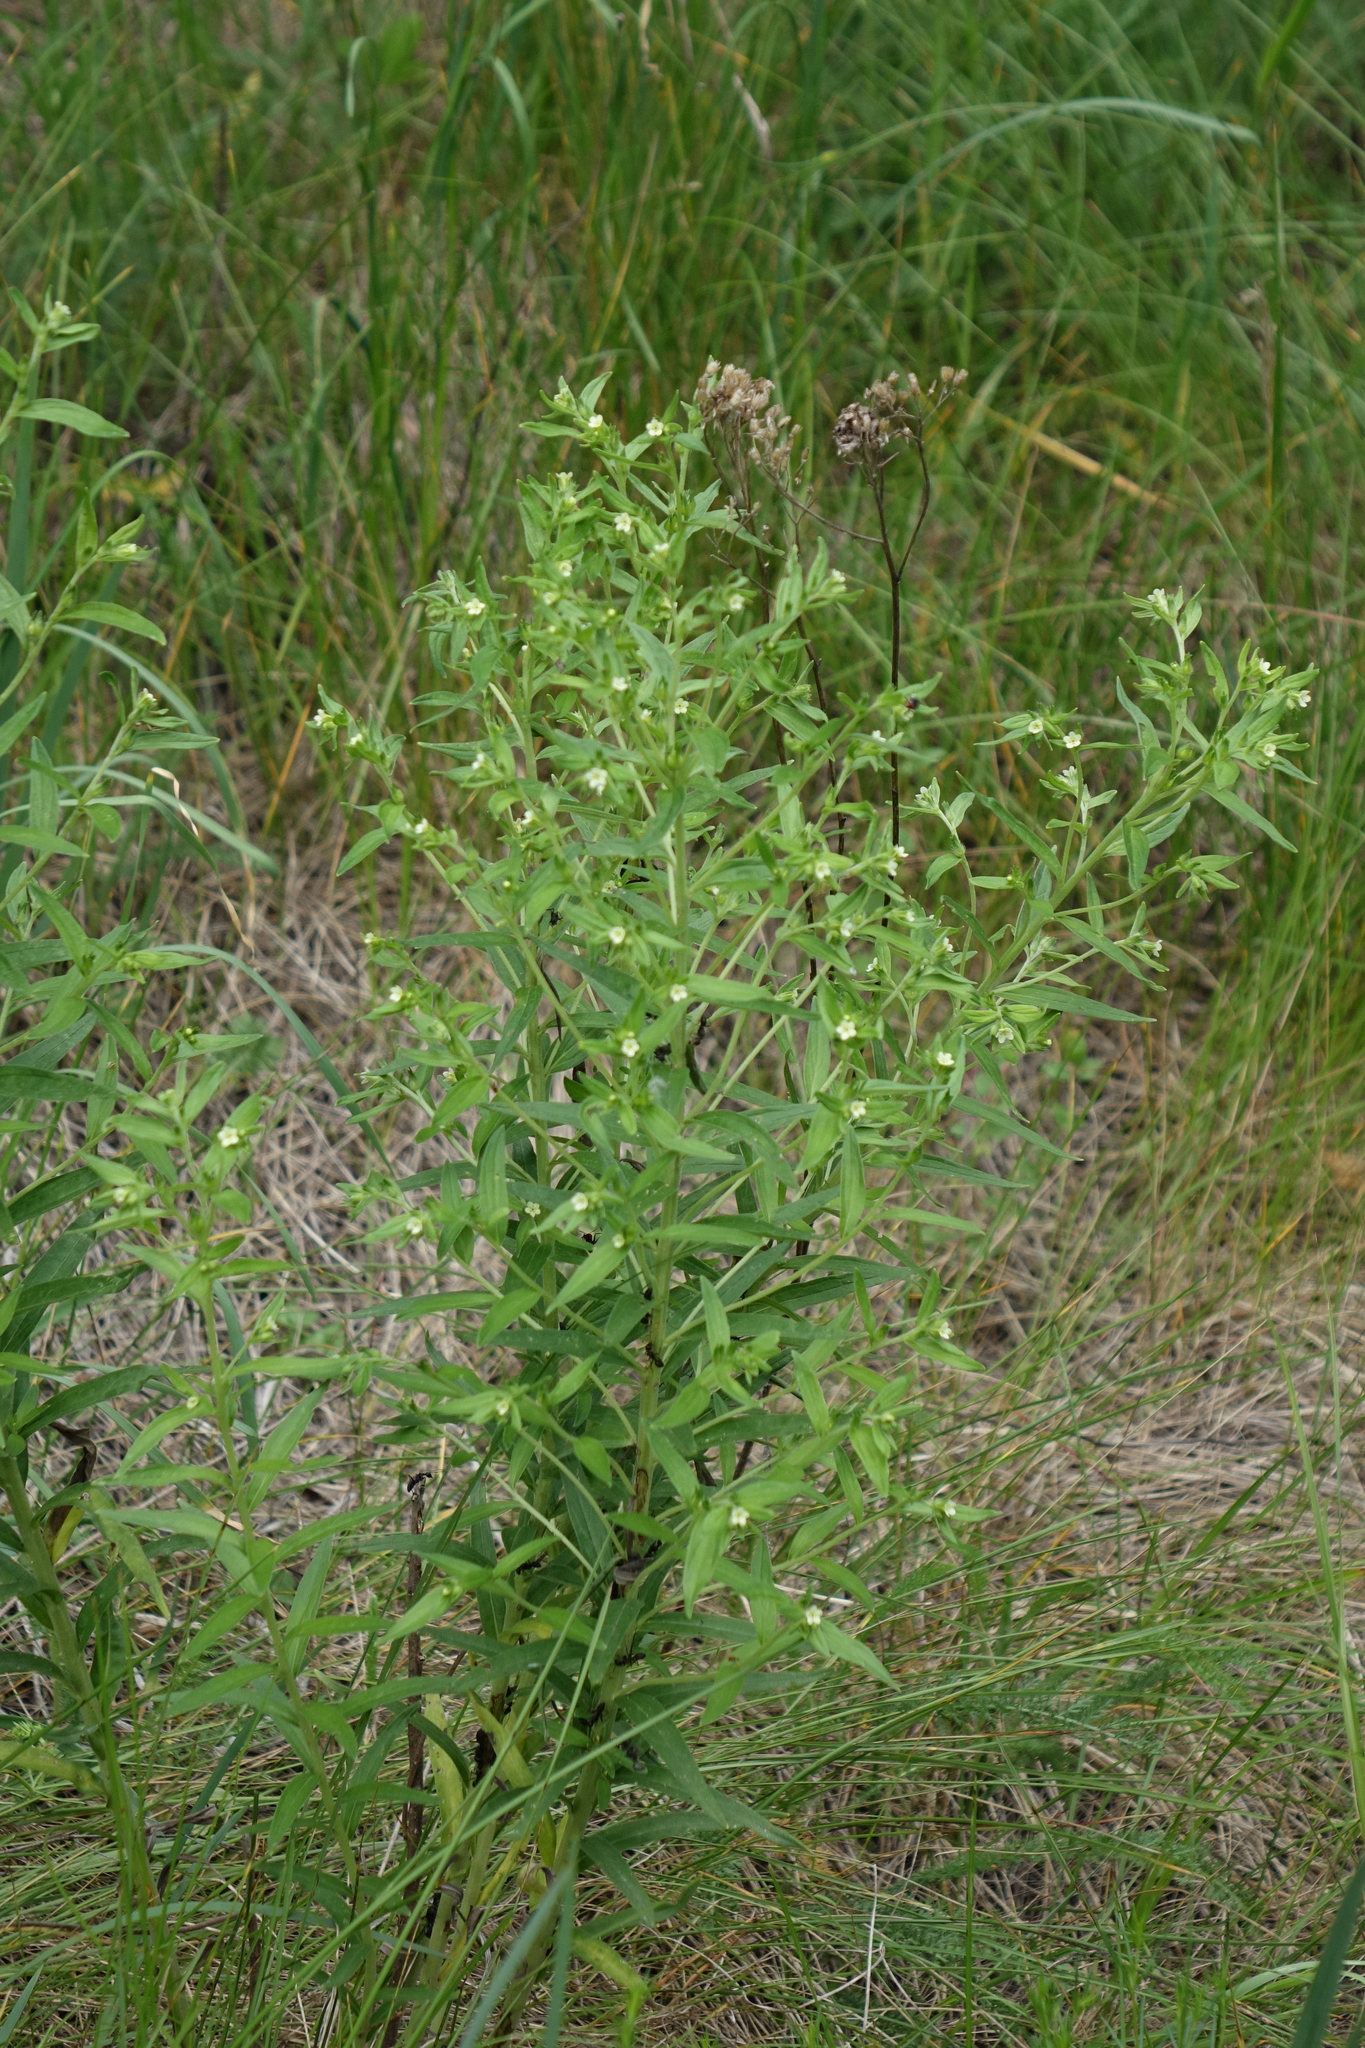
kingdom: Plantae
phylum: Tracheophyta
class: Magnoliopsida
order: Boraginales
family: Boraginaceae
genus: Lithospermum
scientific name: Lithospermum officinale
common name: Common gromwell
